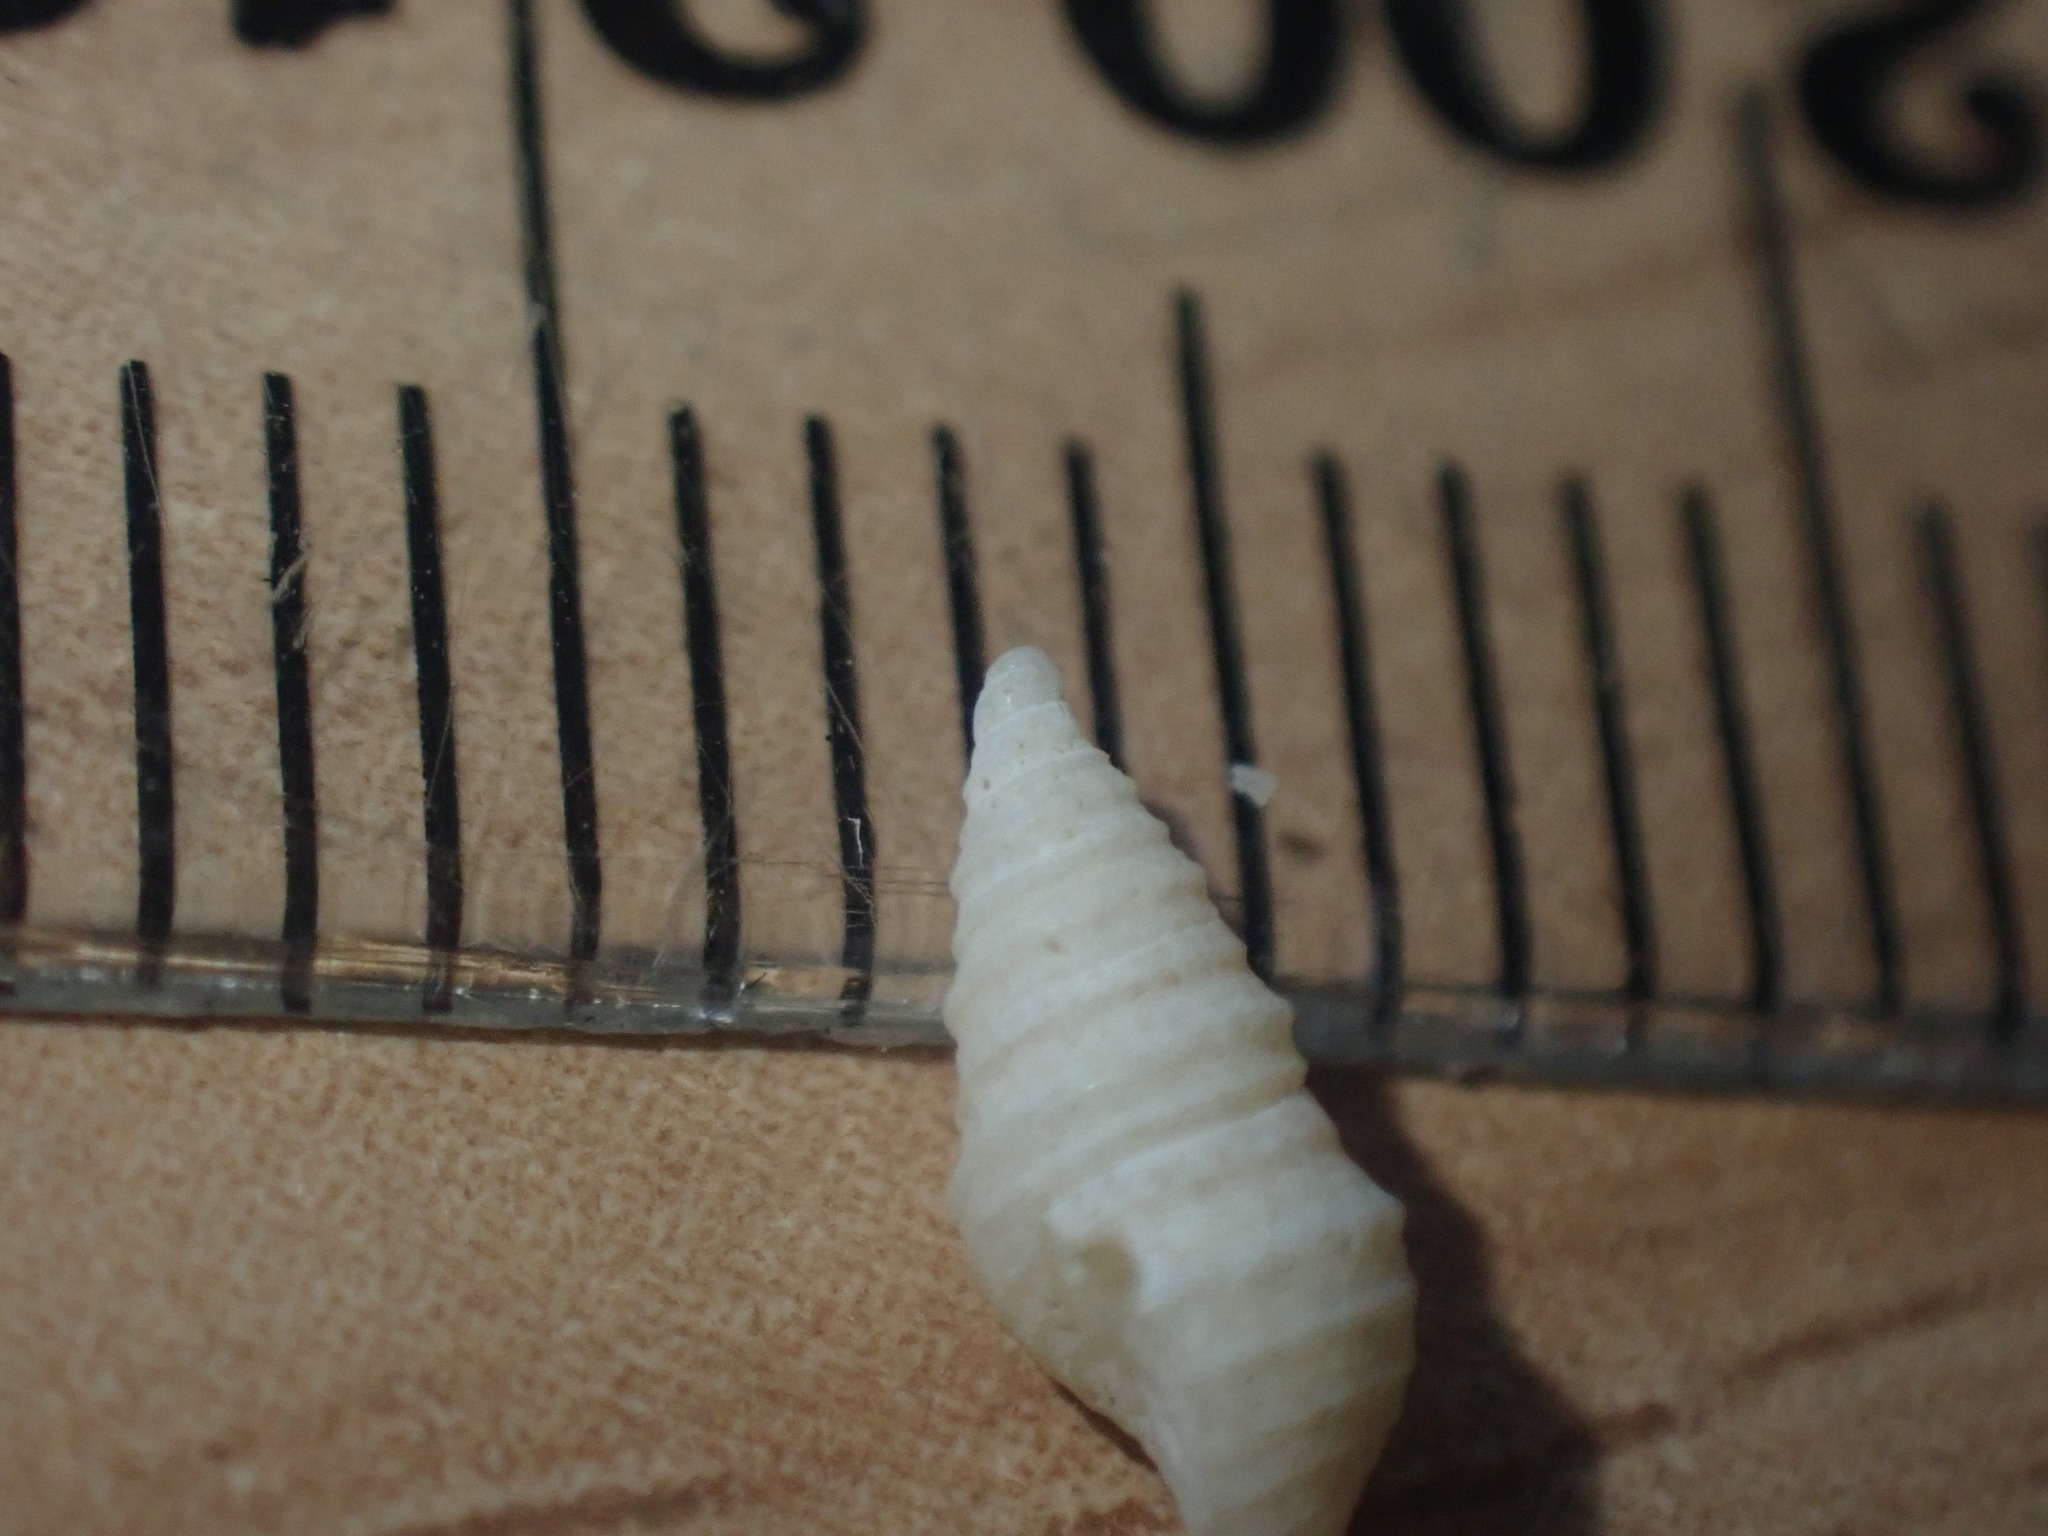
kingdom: Animalia
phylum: Mollusca
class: Gastropoda
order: Neogastropoda
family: Borsoniidae
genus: Maoritomella
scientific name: Maoritomella albula
